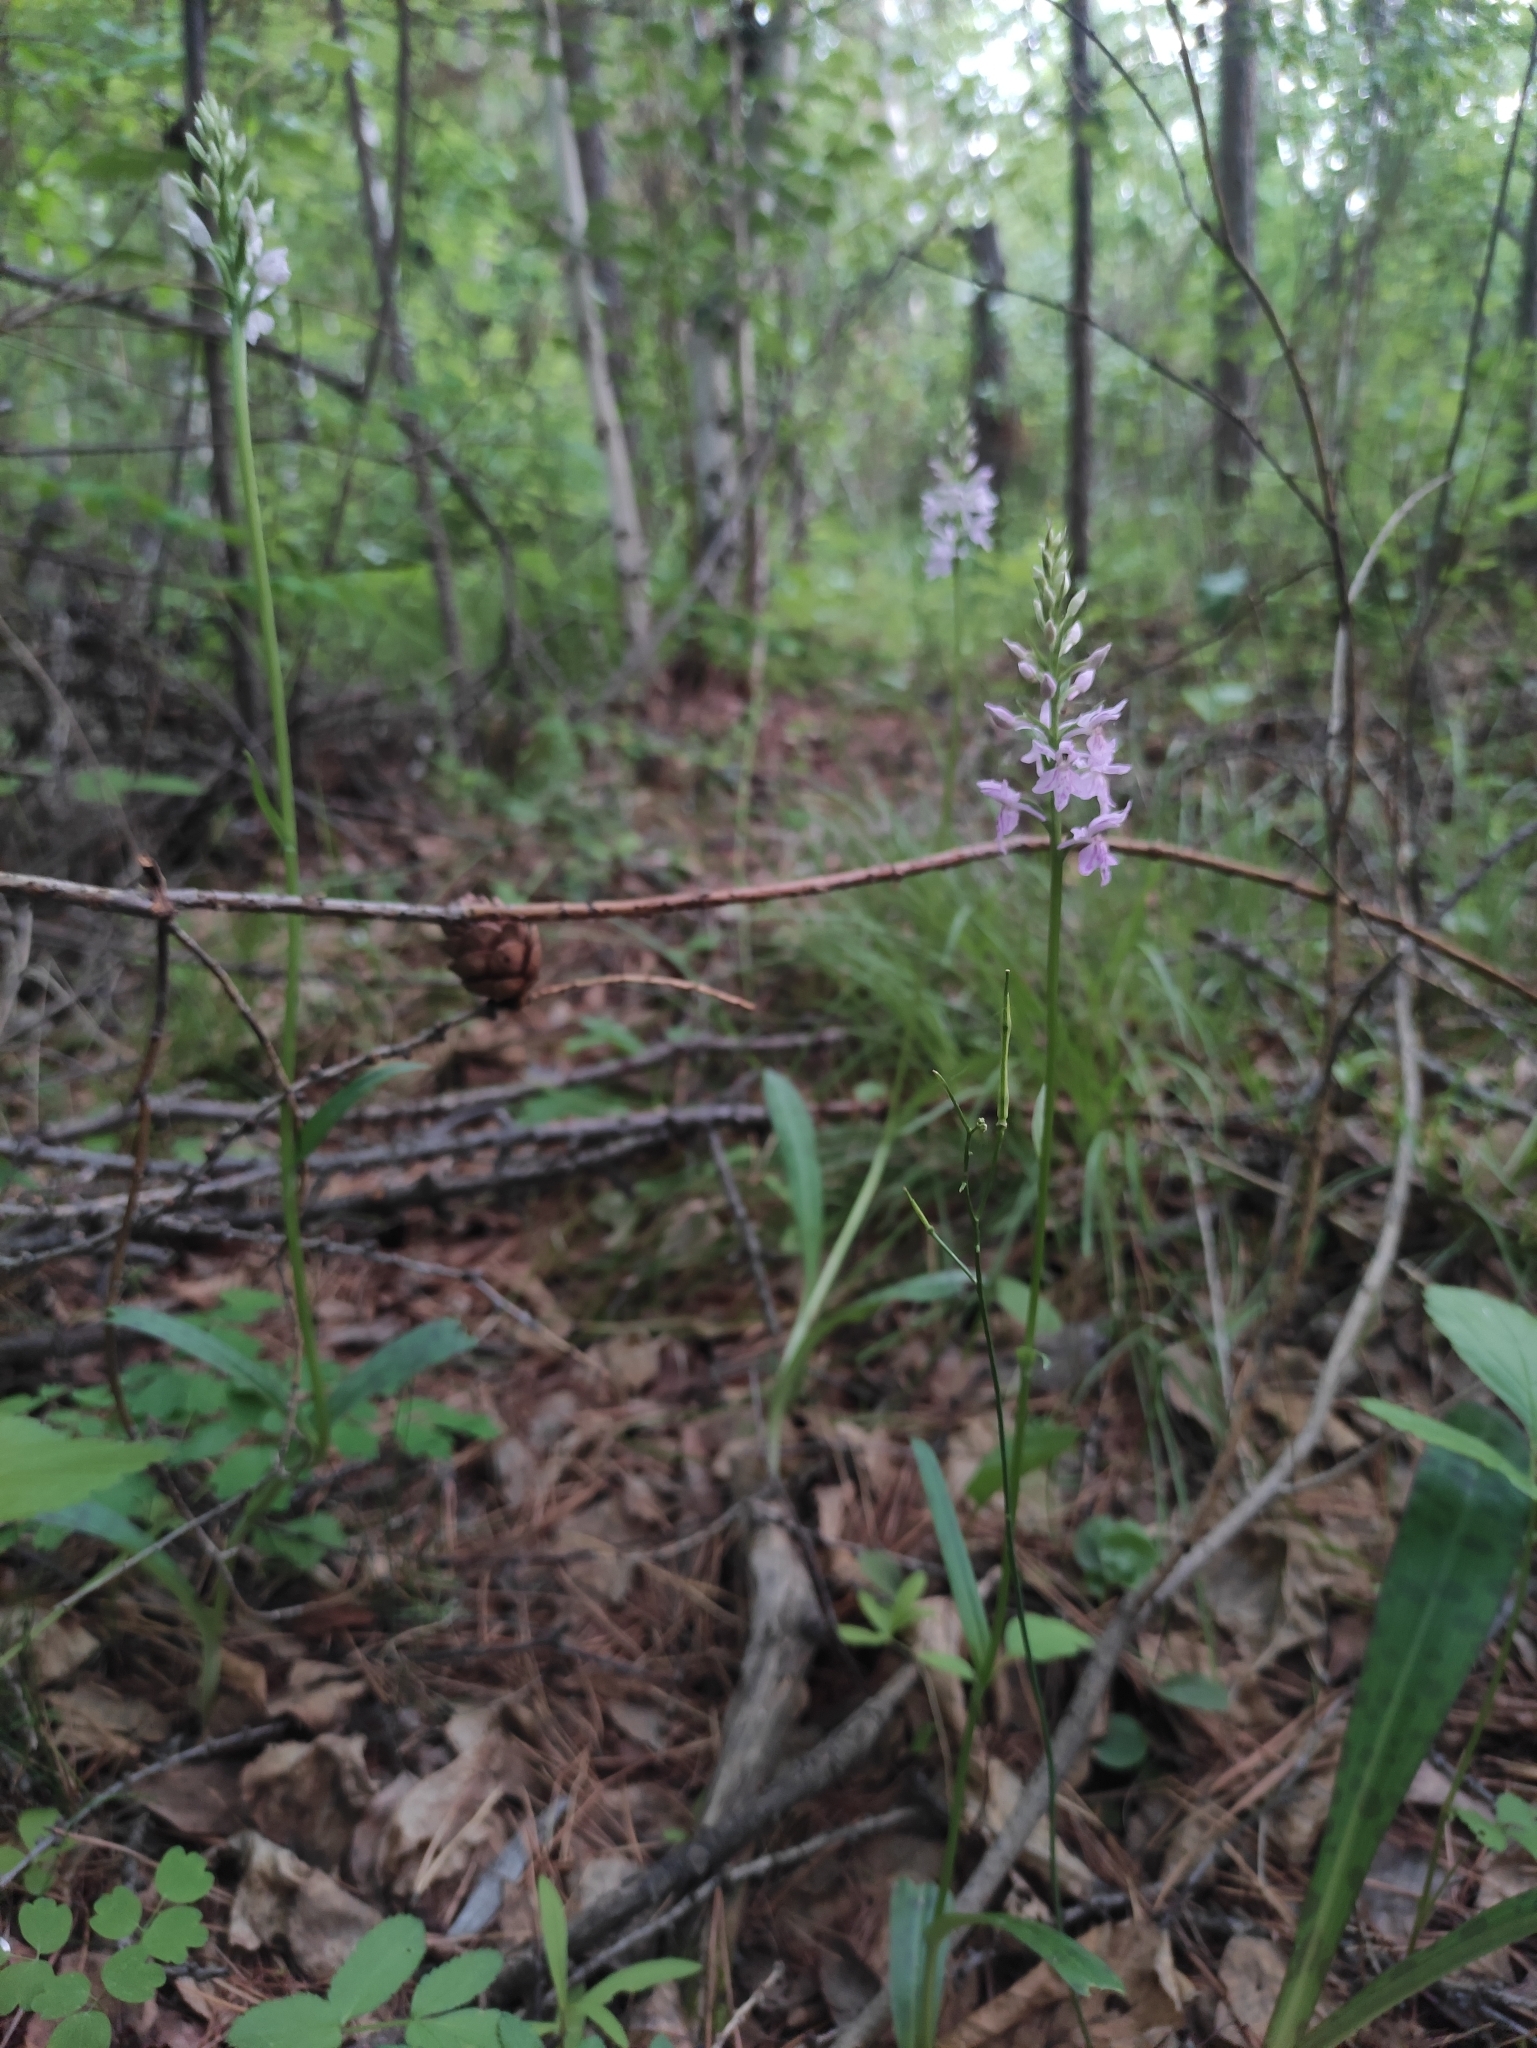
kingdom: Plantae
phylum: Tracheophyta
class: Liliopsida
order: Asparagales
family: Orchidaceae
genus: Dactylorhiza
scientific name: Dactylorhiza maculata
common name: Heath spotted-orchid
